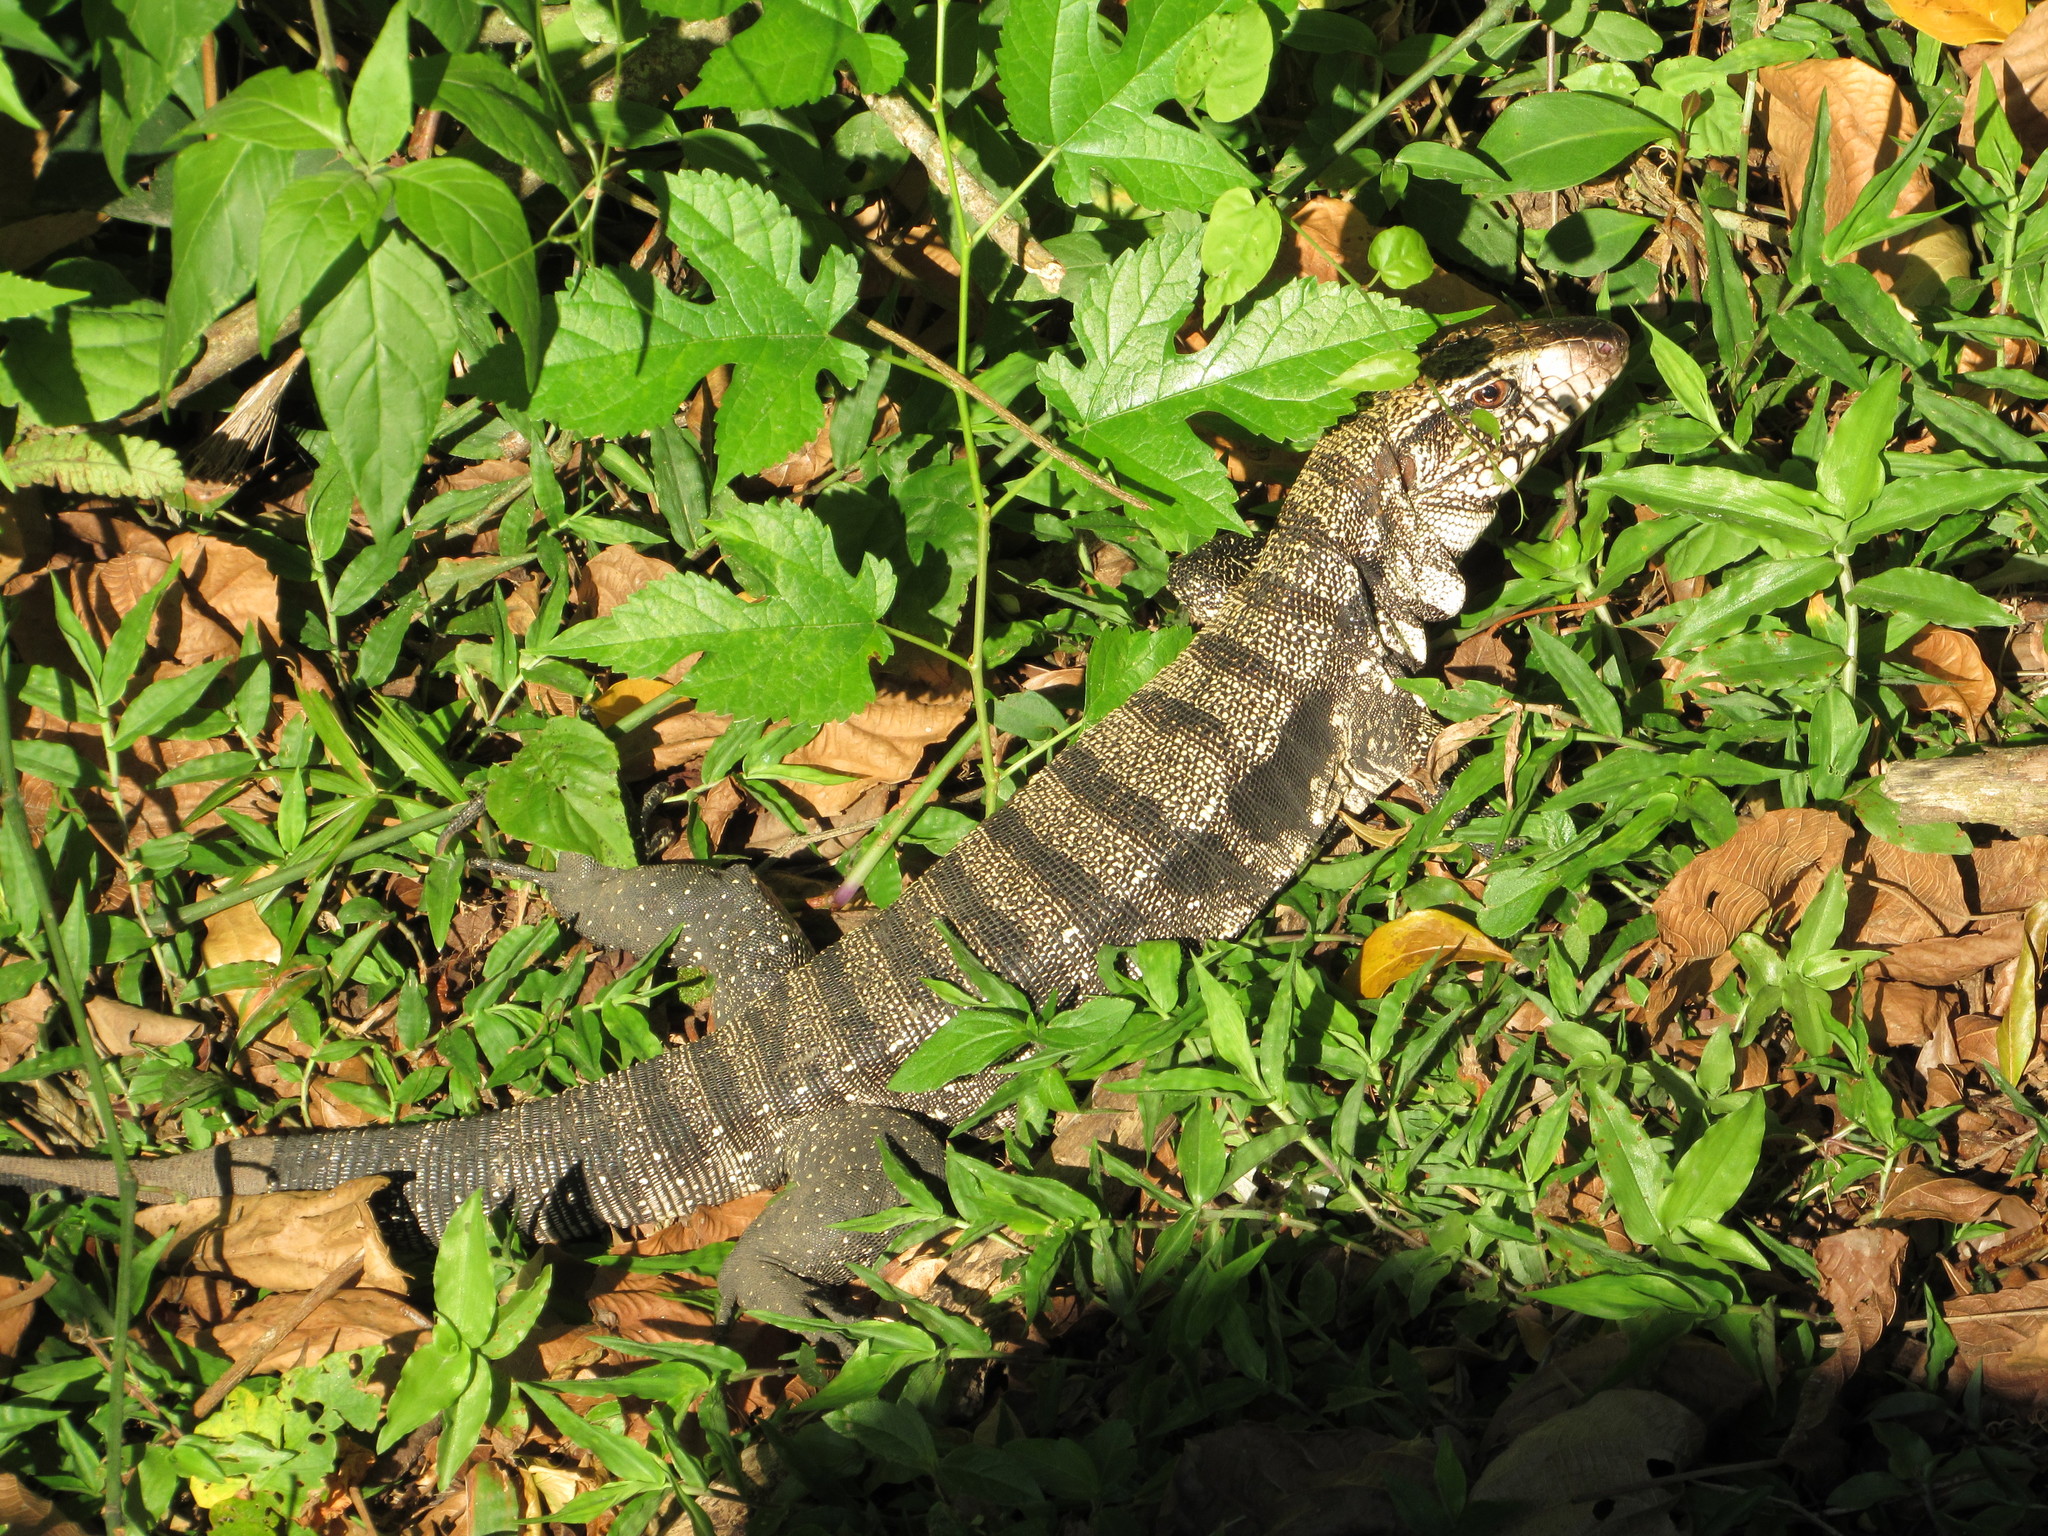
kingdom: Animalia
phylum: Chordata
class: Squamata
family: Teiidae
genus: Salvator
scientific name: Salvator merianae
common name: Argentine black and white tegu
